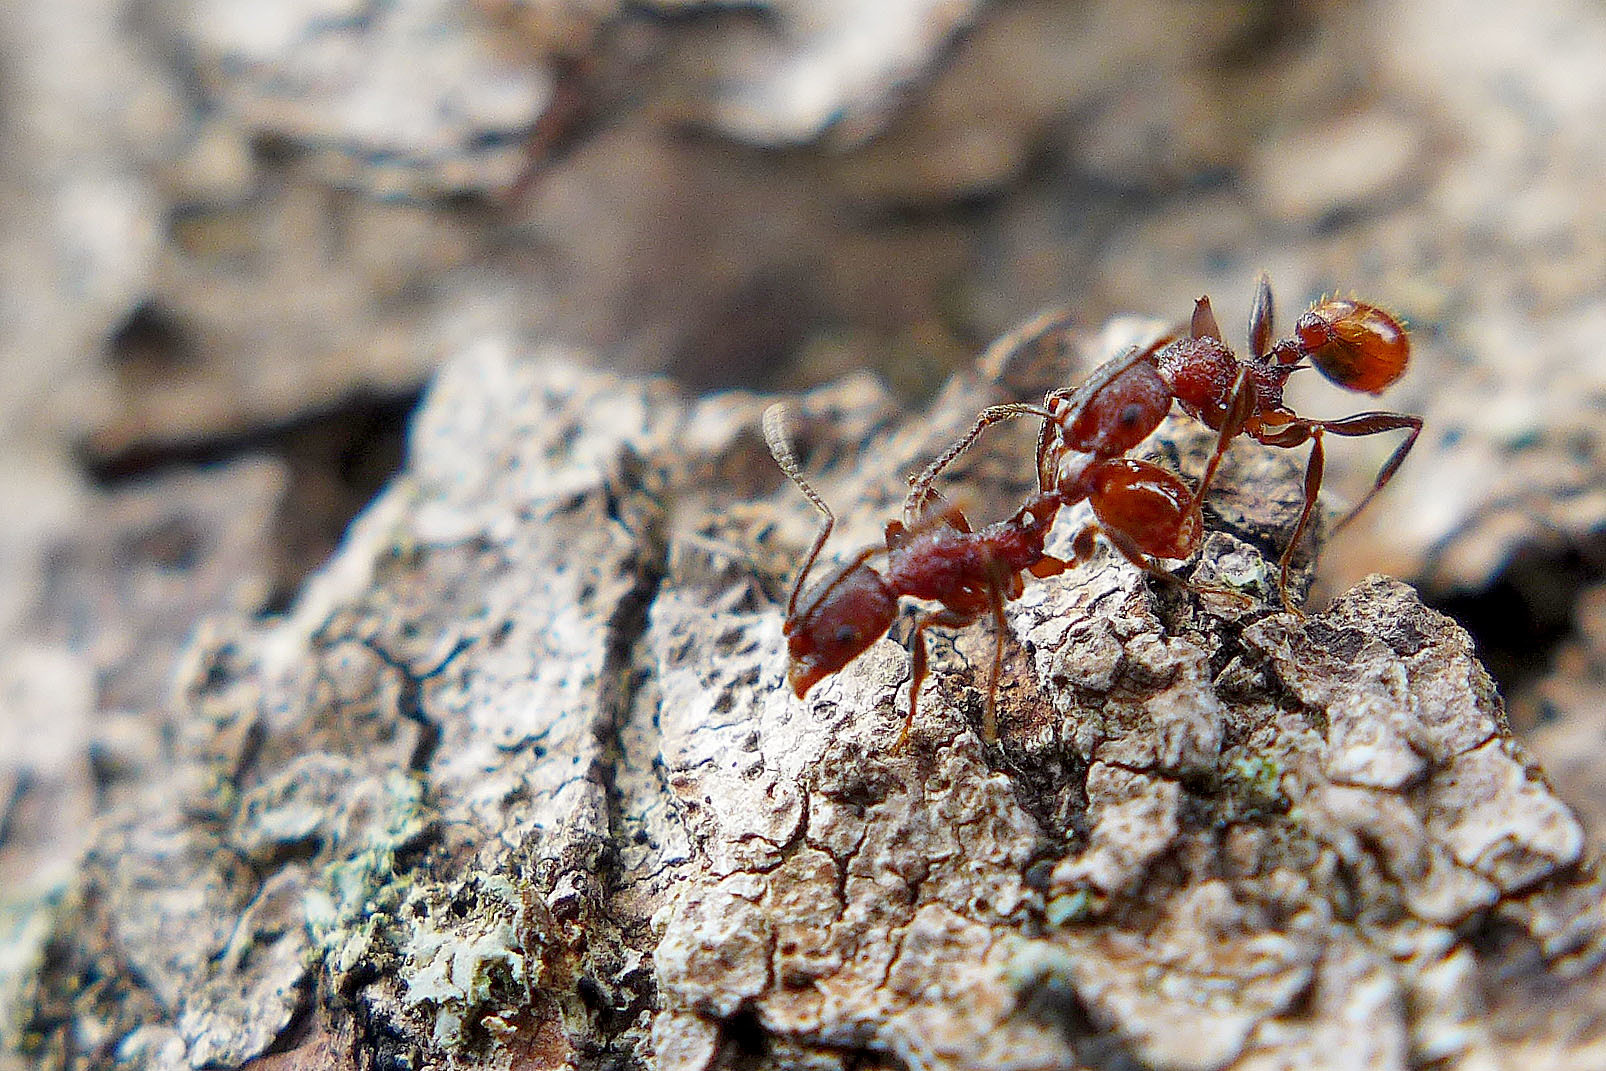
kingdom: Animalia
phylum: Arthropoda
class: Insecta
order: Hymenoptera
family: Formicidae
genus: Aphaenogaster
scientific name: Aphaenogaster mariae
